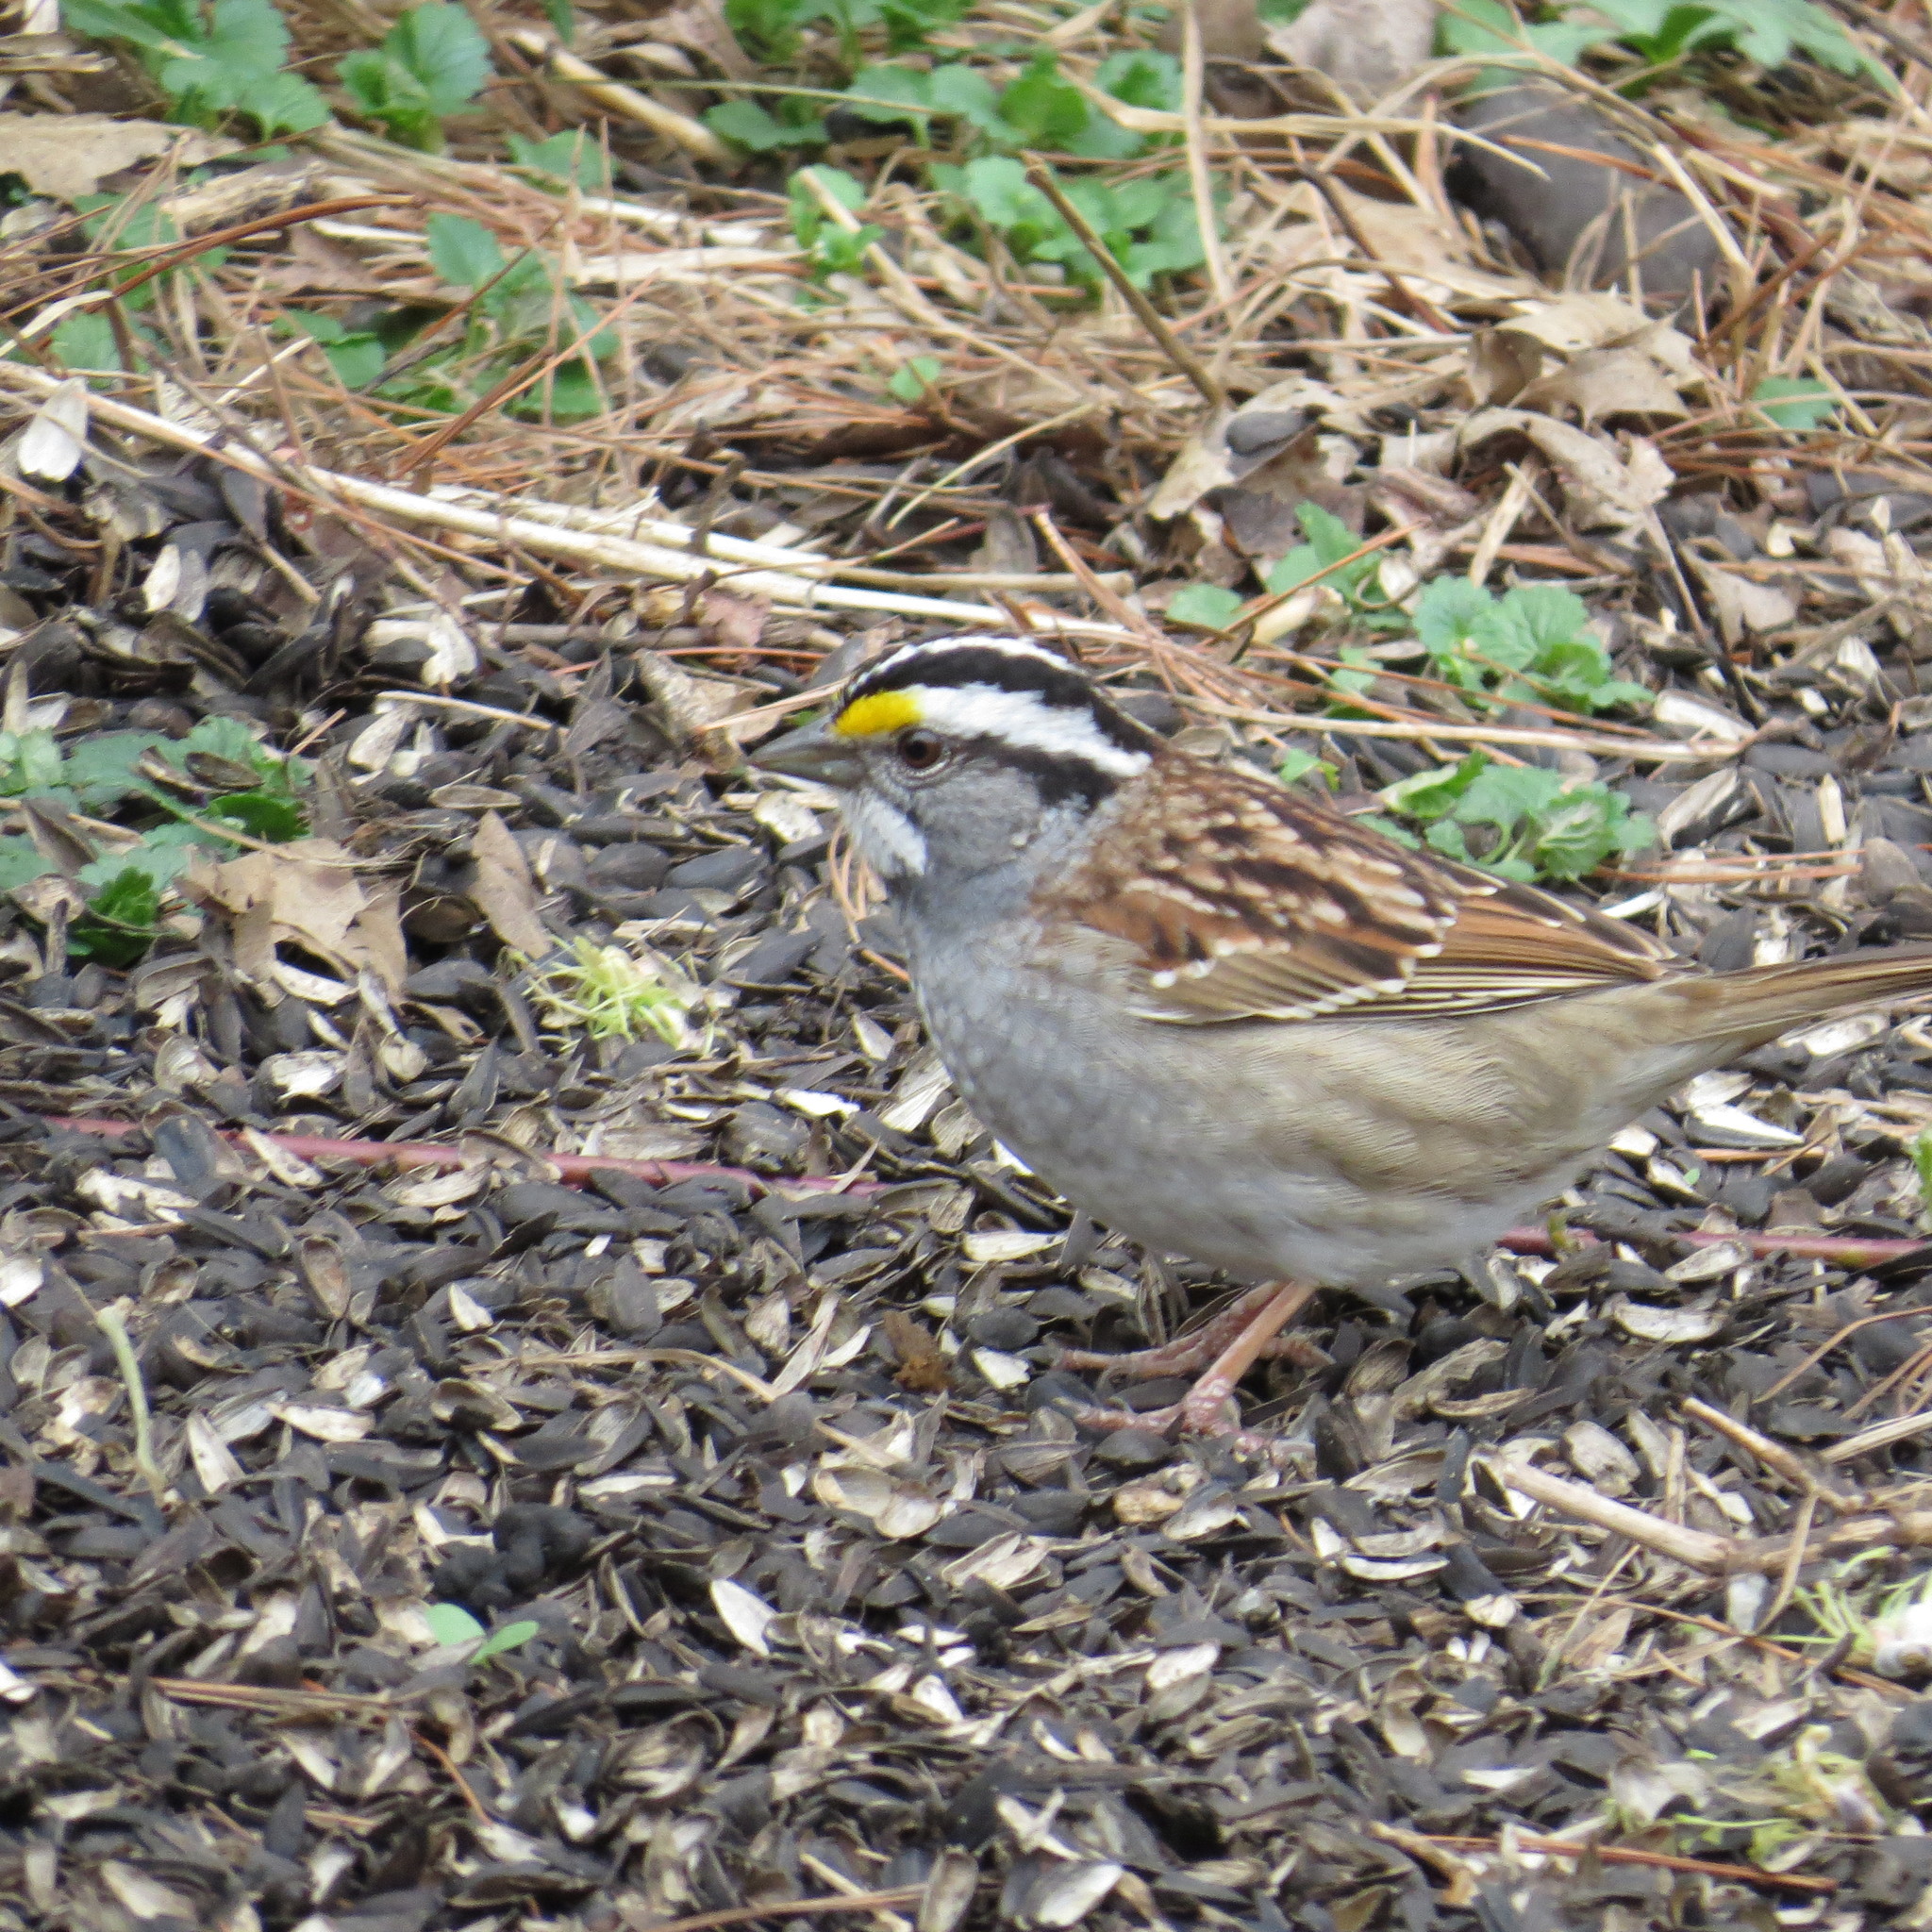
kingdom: Animalia
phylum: Chordata
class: Aves
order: Passeriformes
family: Passerellidae
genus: Zonotrichia
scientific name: Zonotrichia albicollis
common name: White-throated sparrow
